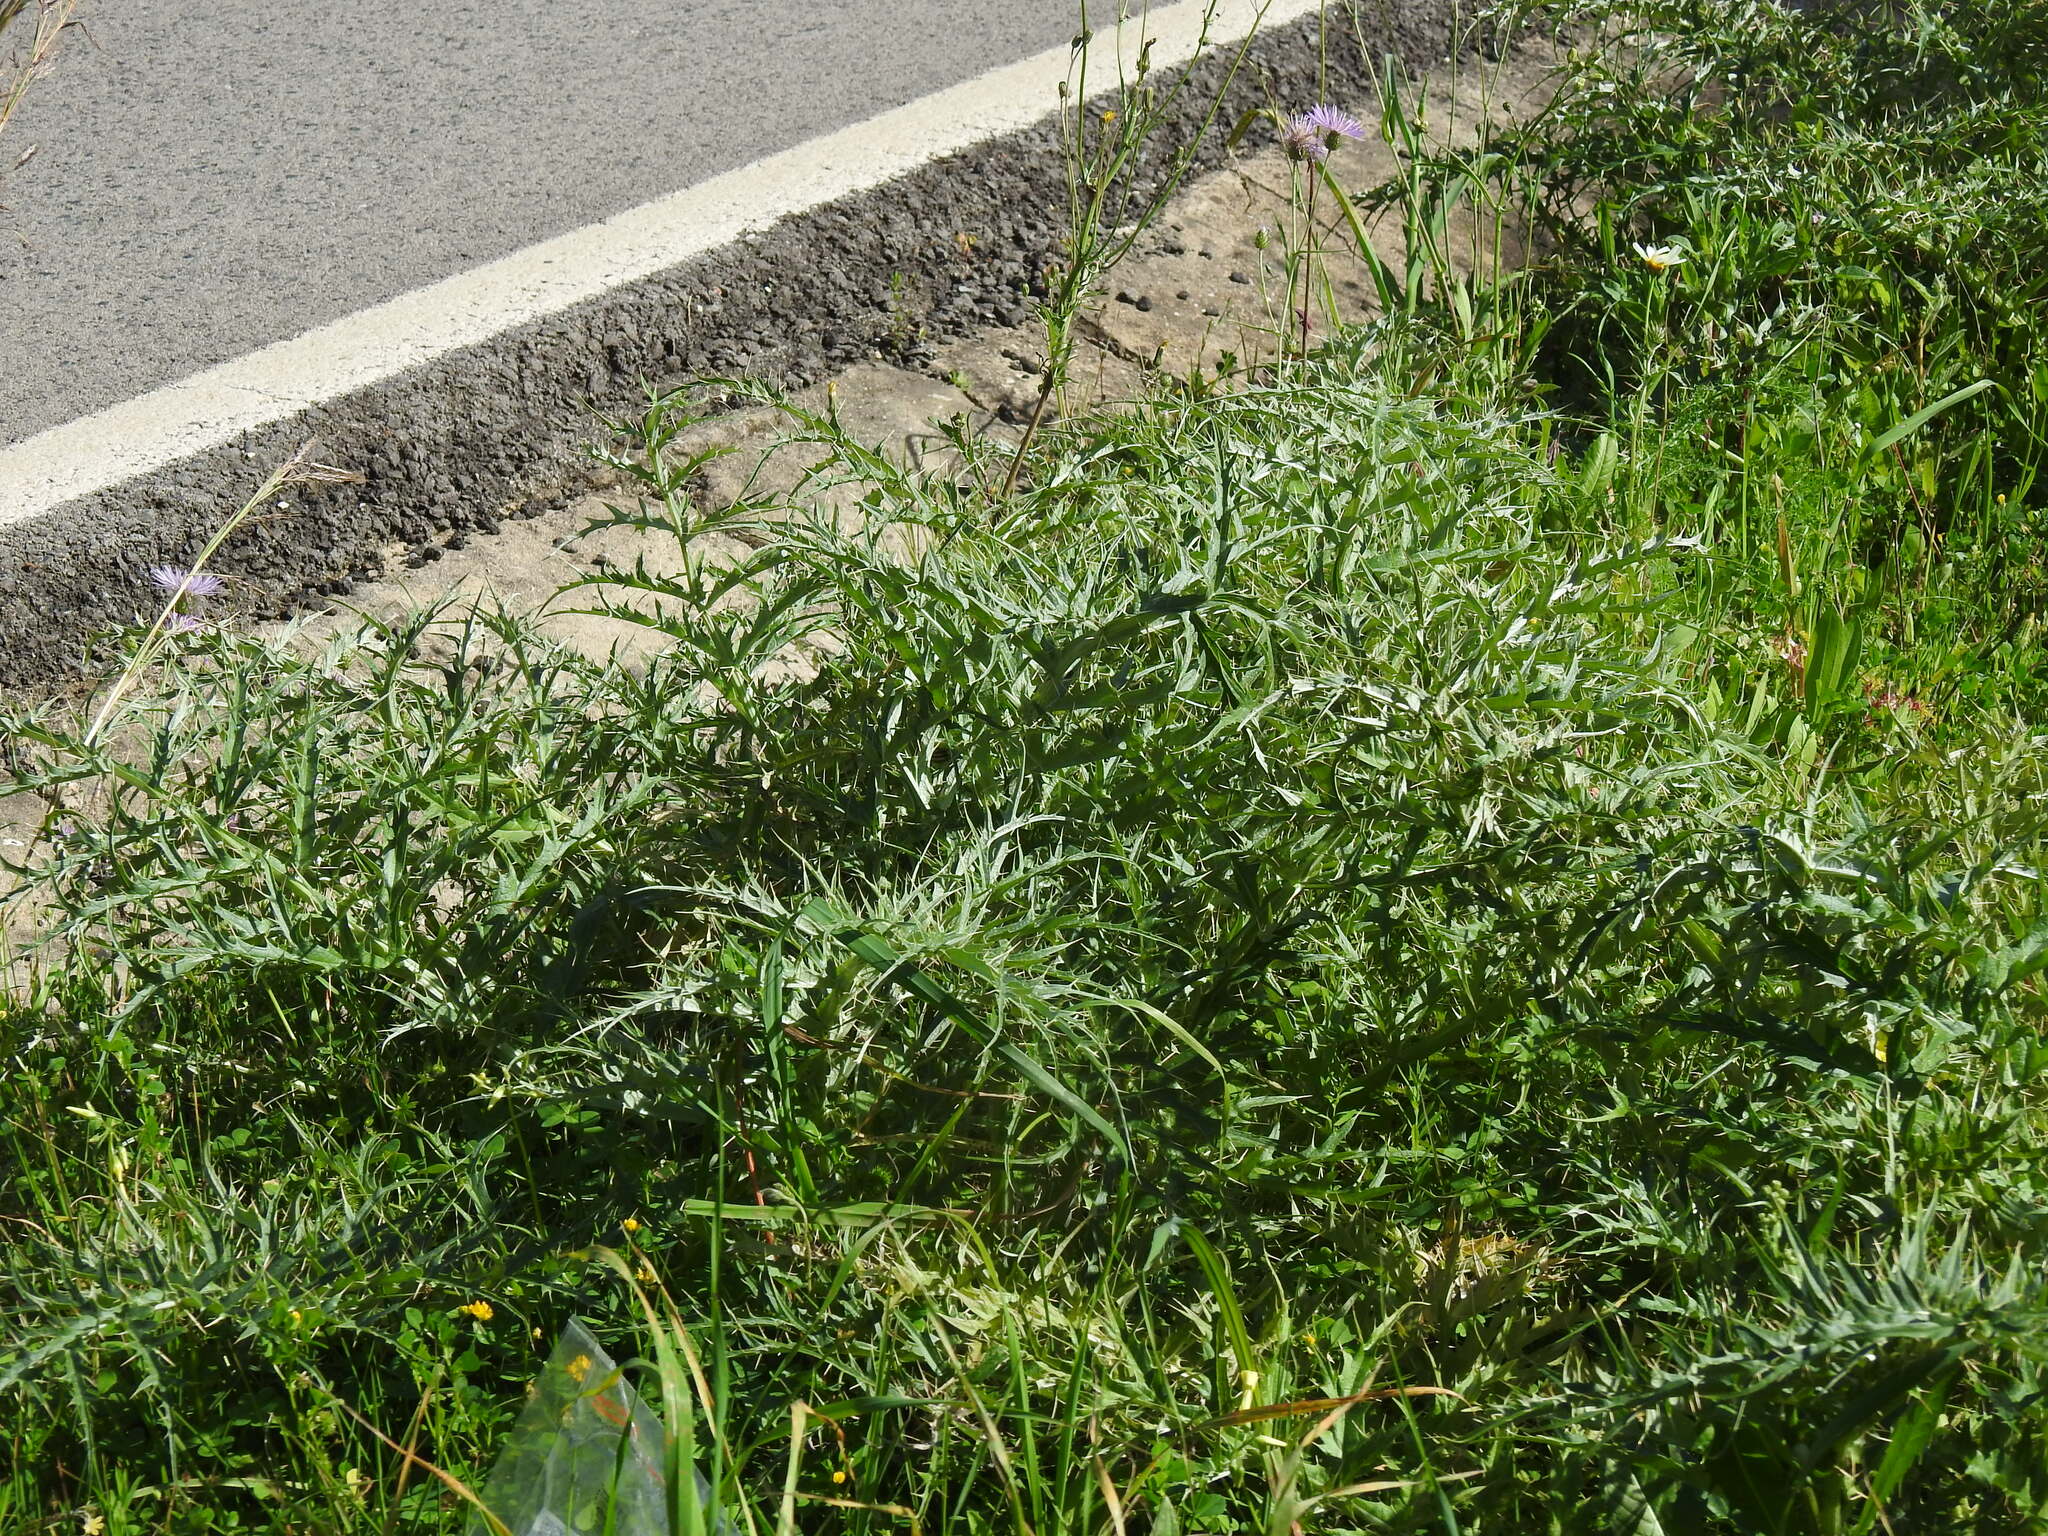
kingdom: Plantae
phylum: Tracheophyta
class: Magnoliopsida
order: Asterales
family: Asteraceae
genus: Cynara
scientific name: Cynara cardunculus
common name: Globe artichoke
